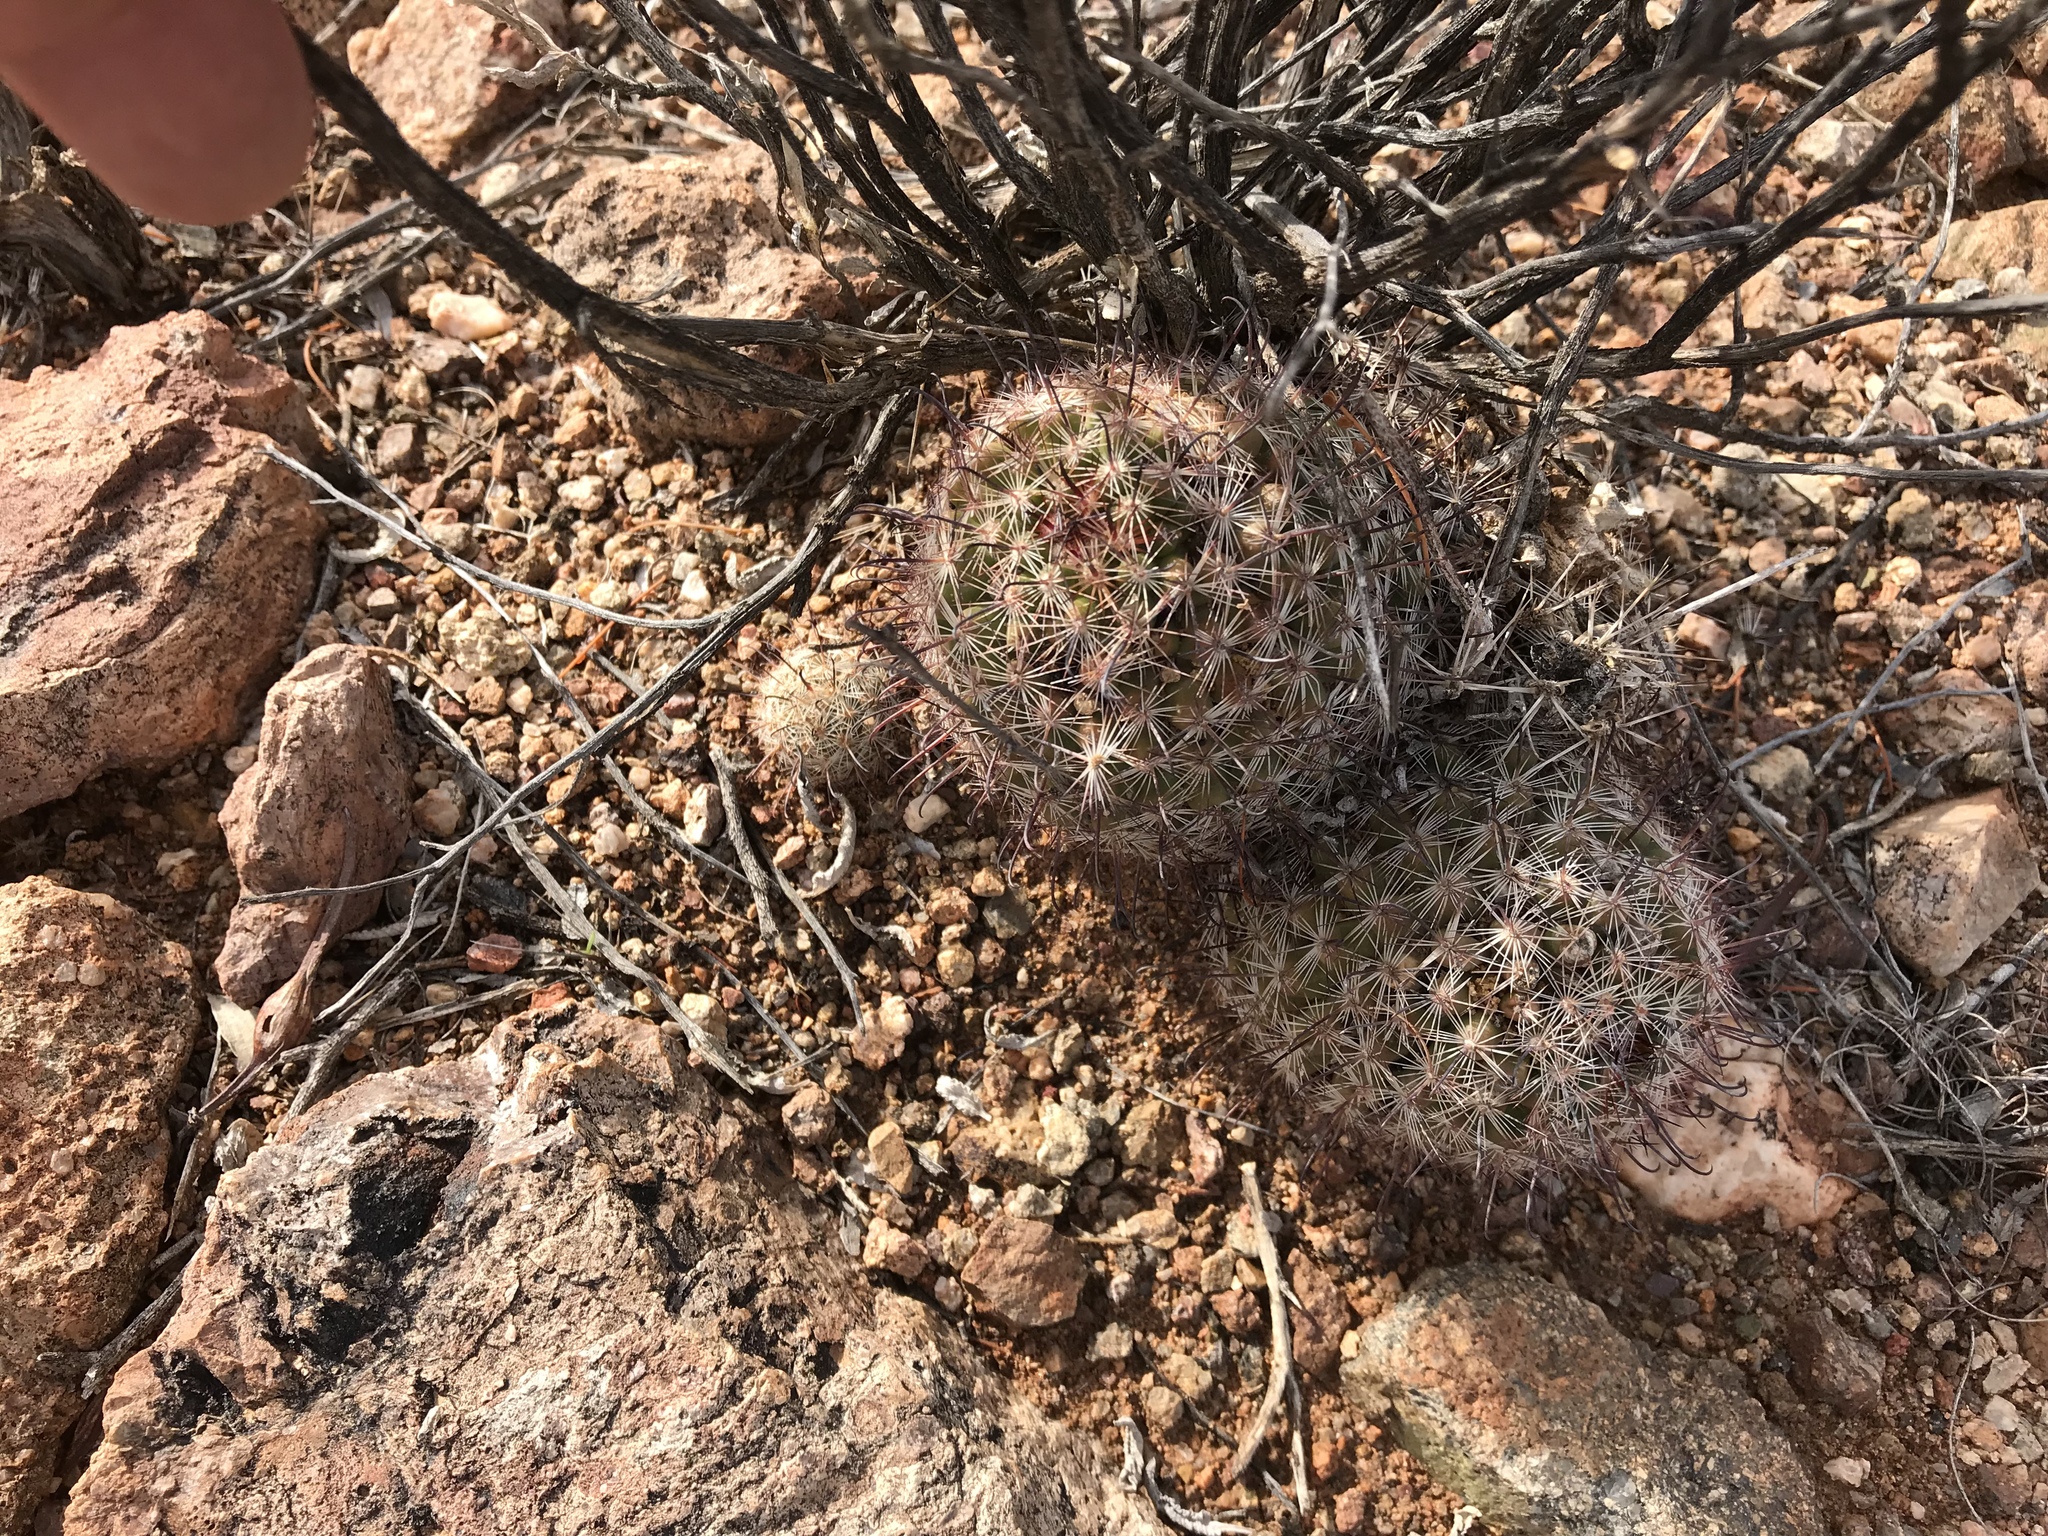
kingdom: Plantae
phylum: Tracheophyta
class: Magnoliopsida
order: Caryophyllales
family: Cactaceae
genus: Cochemiea
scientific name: Cochemiea grahamii
